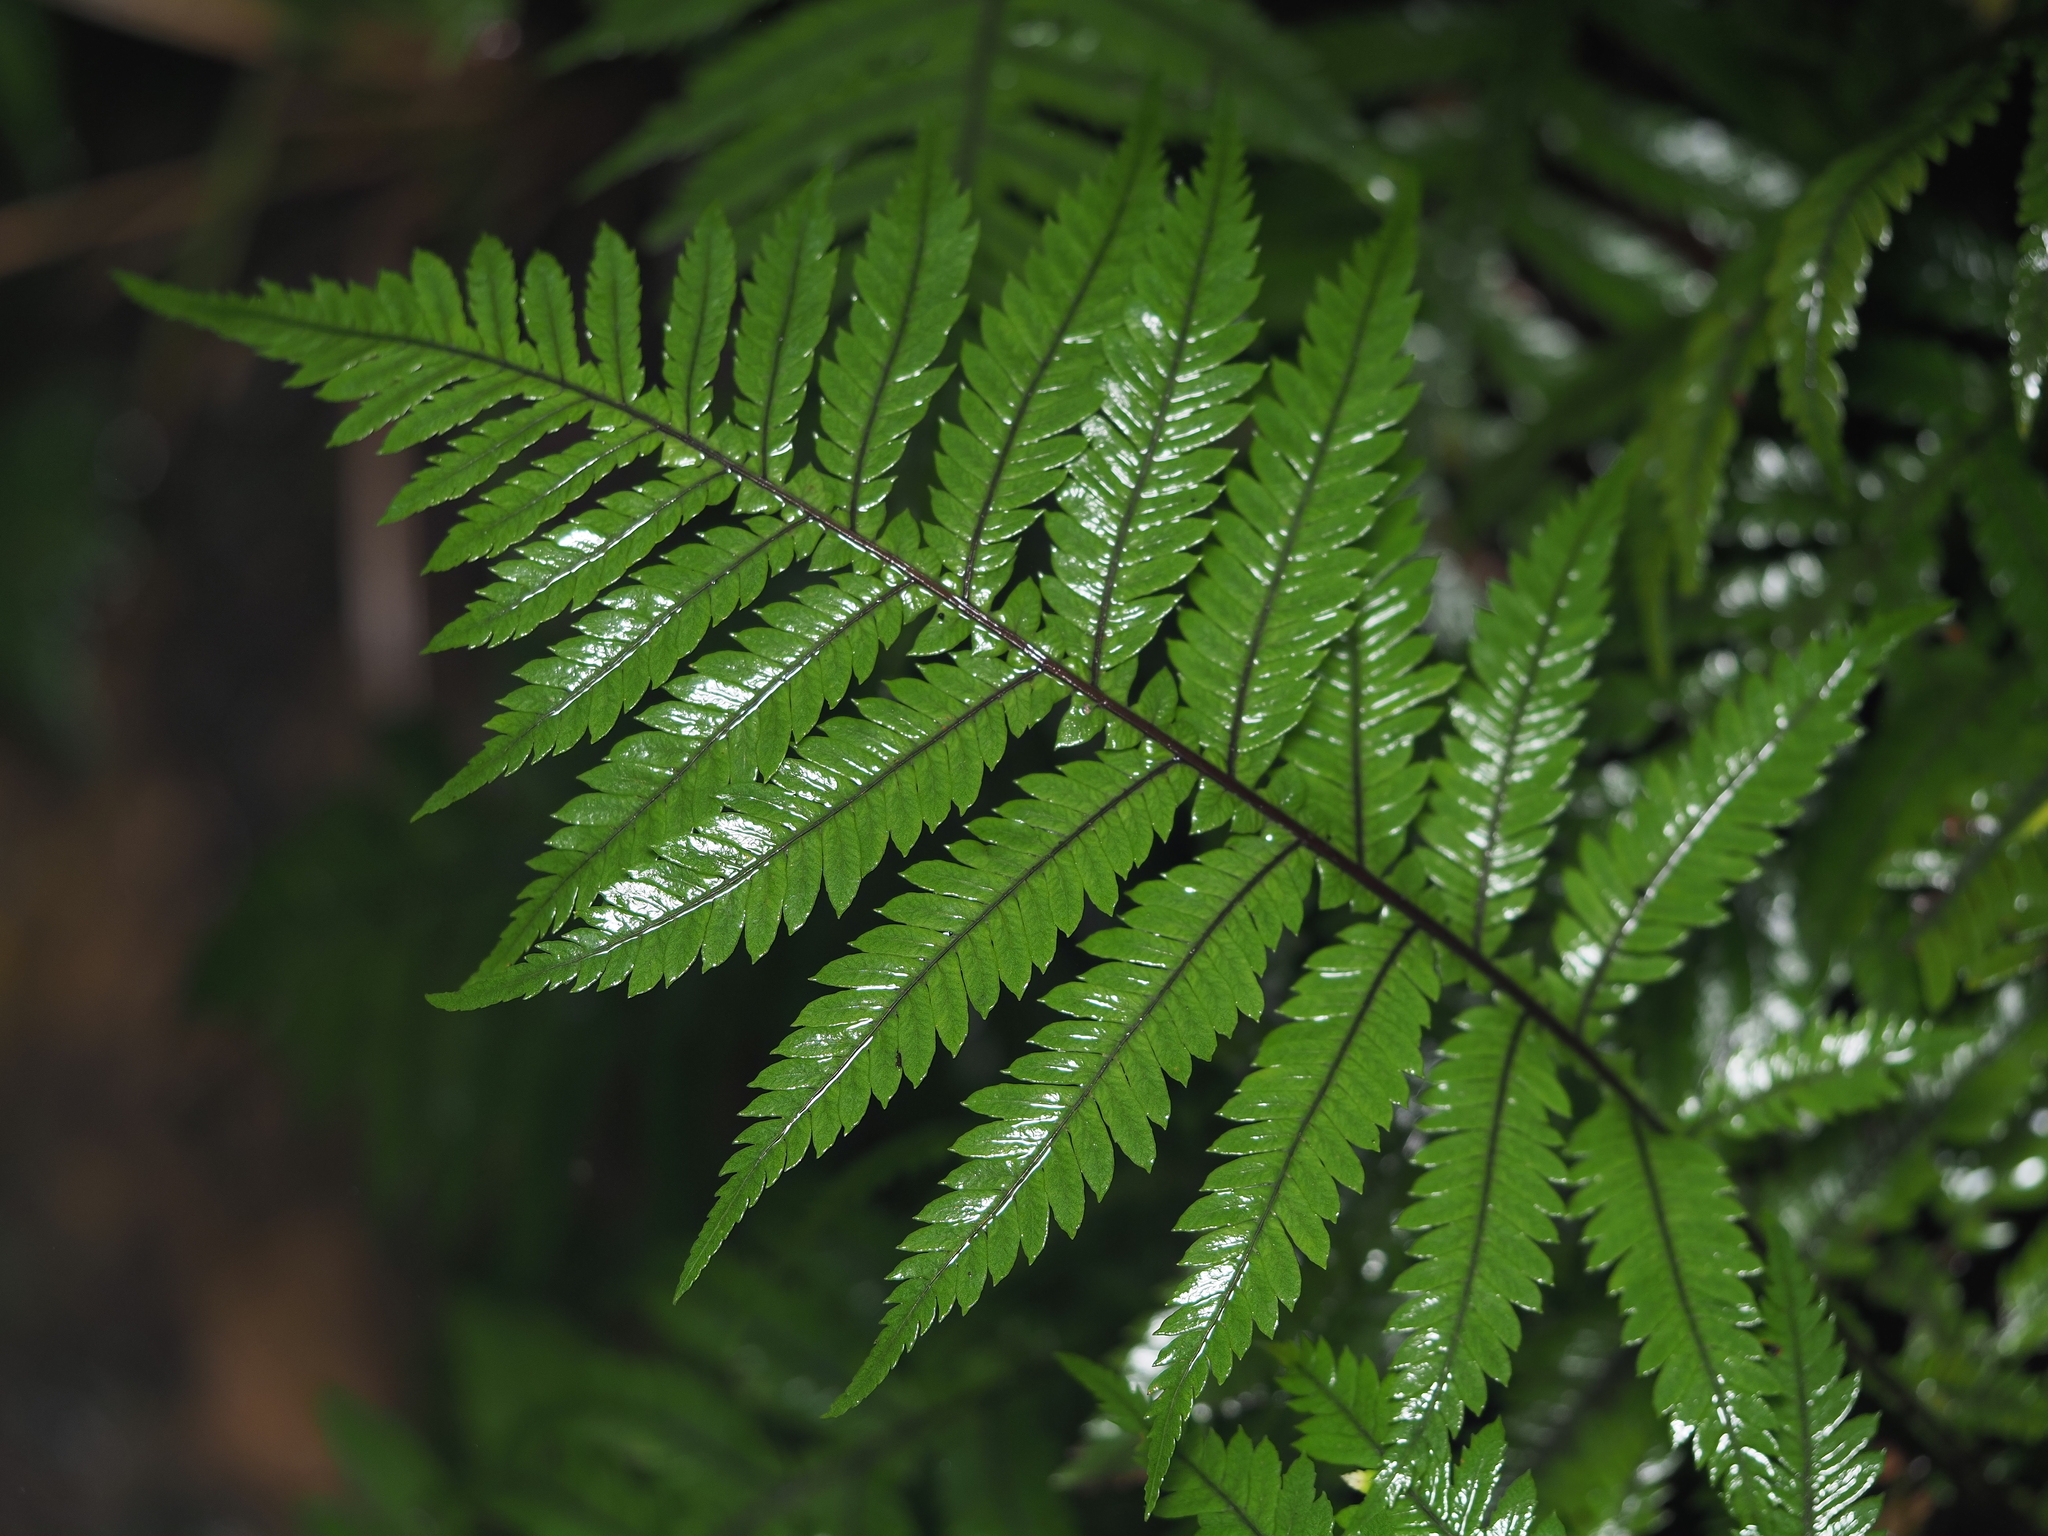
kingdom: Plantae
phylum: Tracheophyta
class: Polypodiopsida
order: Polypodiales
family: Blechnaceae
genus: Diploblechnum
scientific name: Diploblechnum fraseri
